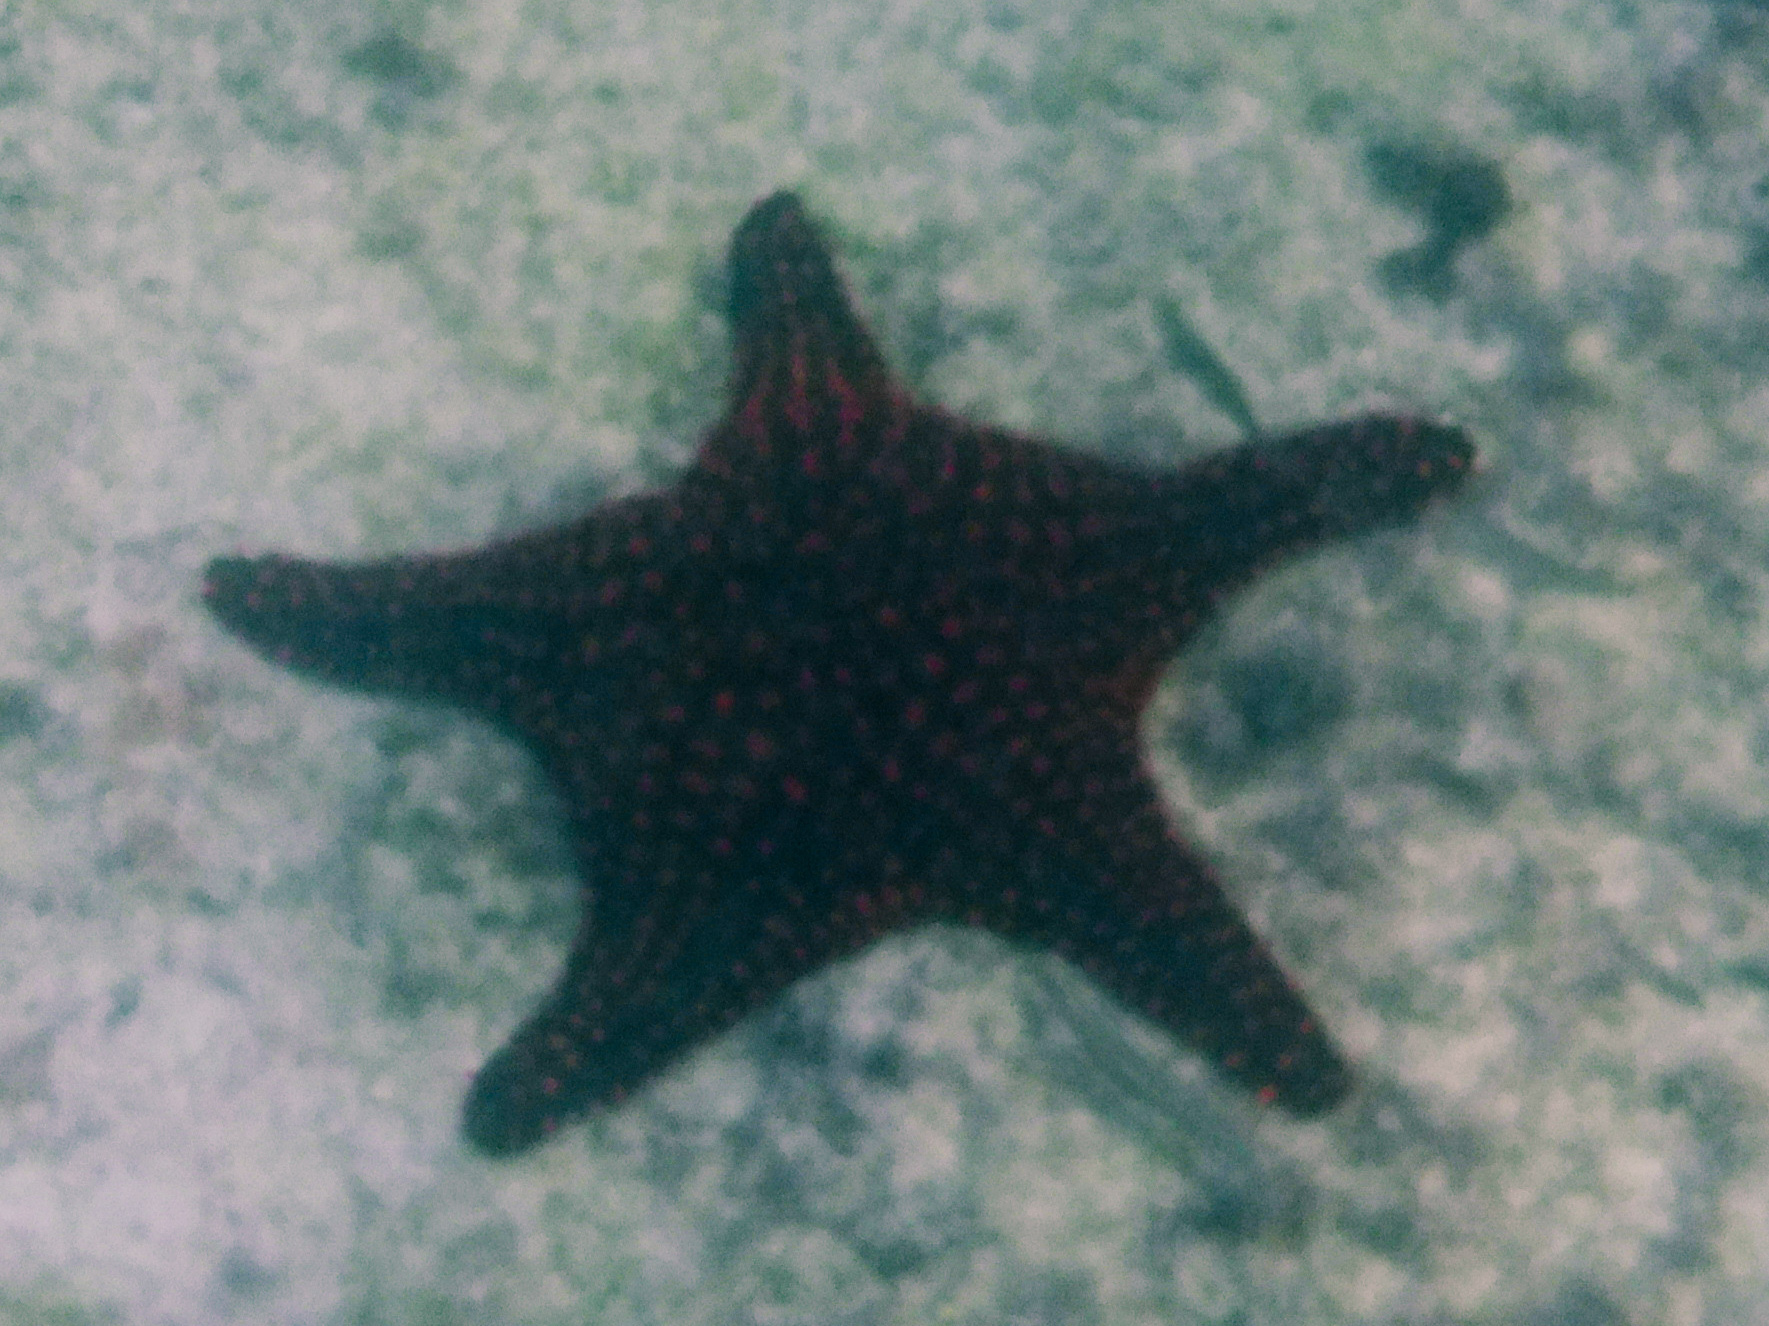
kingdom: Animalia
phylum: Echinodermata
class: Asteroidea
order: Valvatida
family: Oreasteridae
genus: Pentaceraster
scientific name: Pentaceraster cumingi
